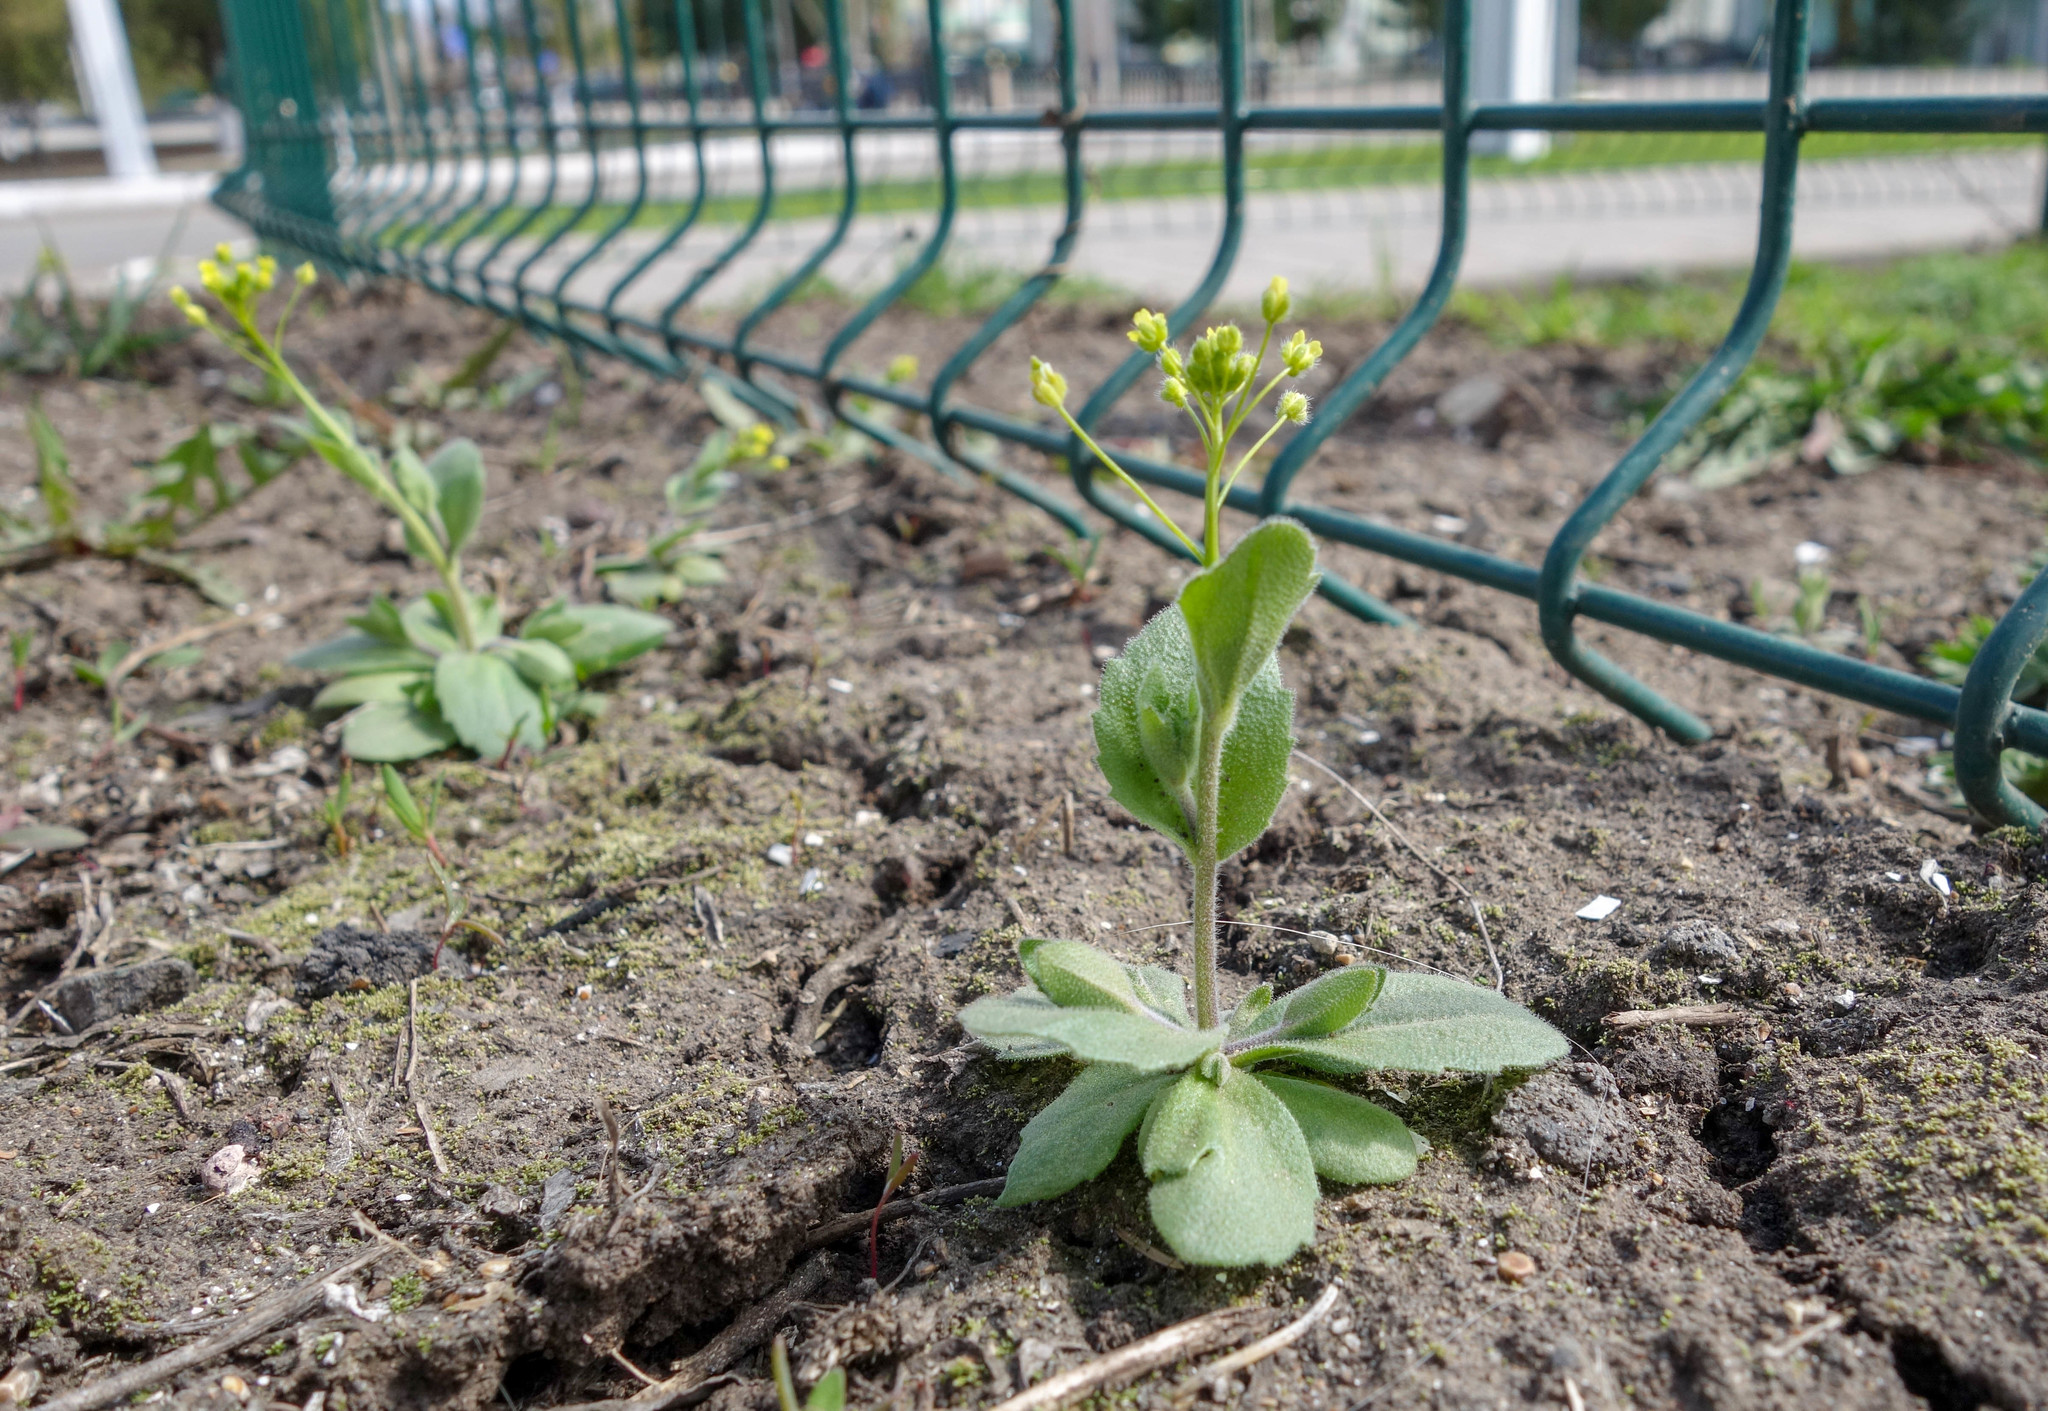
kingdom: Plantae
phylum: Tracheophyta
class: Magnoliopsida
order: Brassicales
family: Brassicaceae
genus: Draba
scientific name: Draba nemorosa
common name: Wood whitlow-grass
